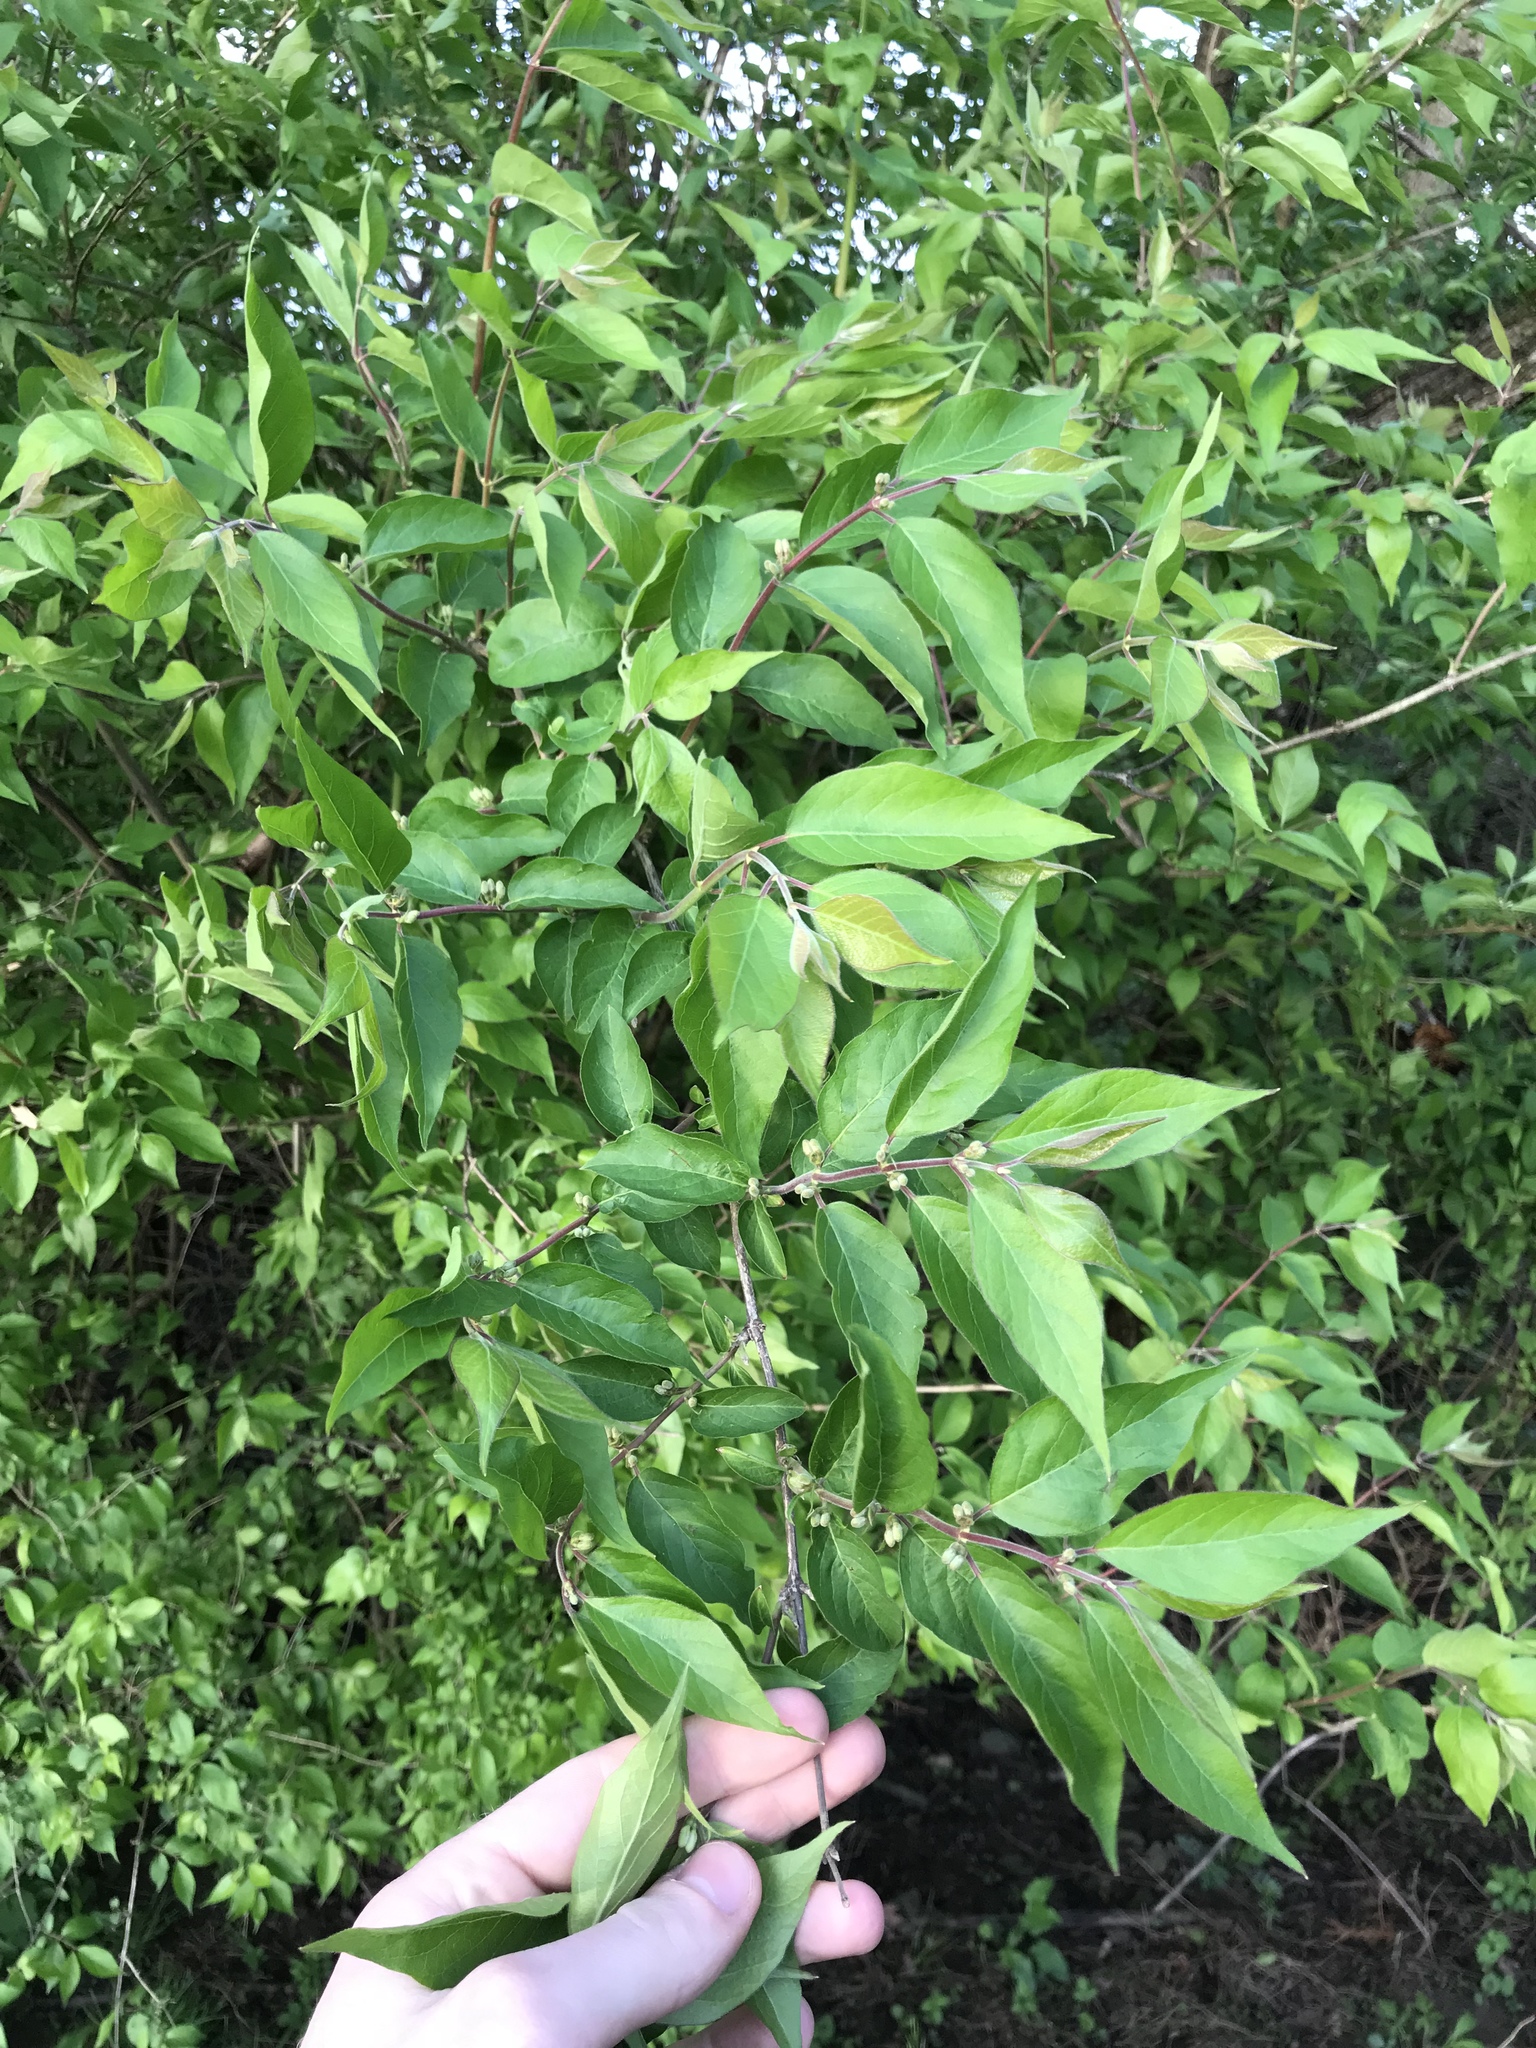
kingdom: Plantae
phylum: Tracheophyta
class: Magnoliopsida
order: Dipsacales
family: Caprifoliaceae
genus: Lonicera
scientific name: Lonicera maackii
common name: Amur honeysuckle
